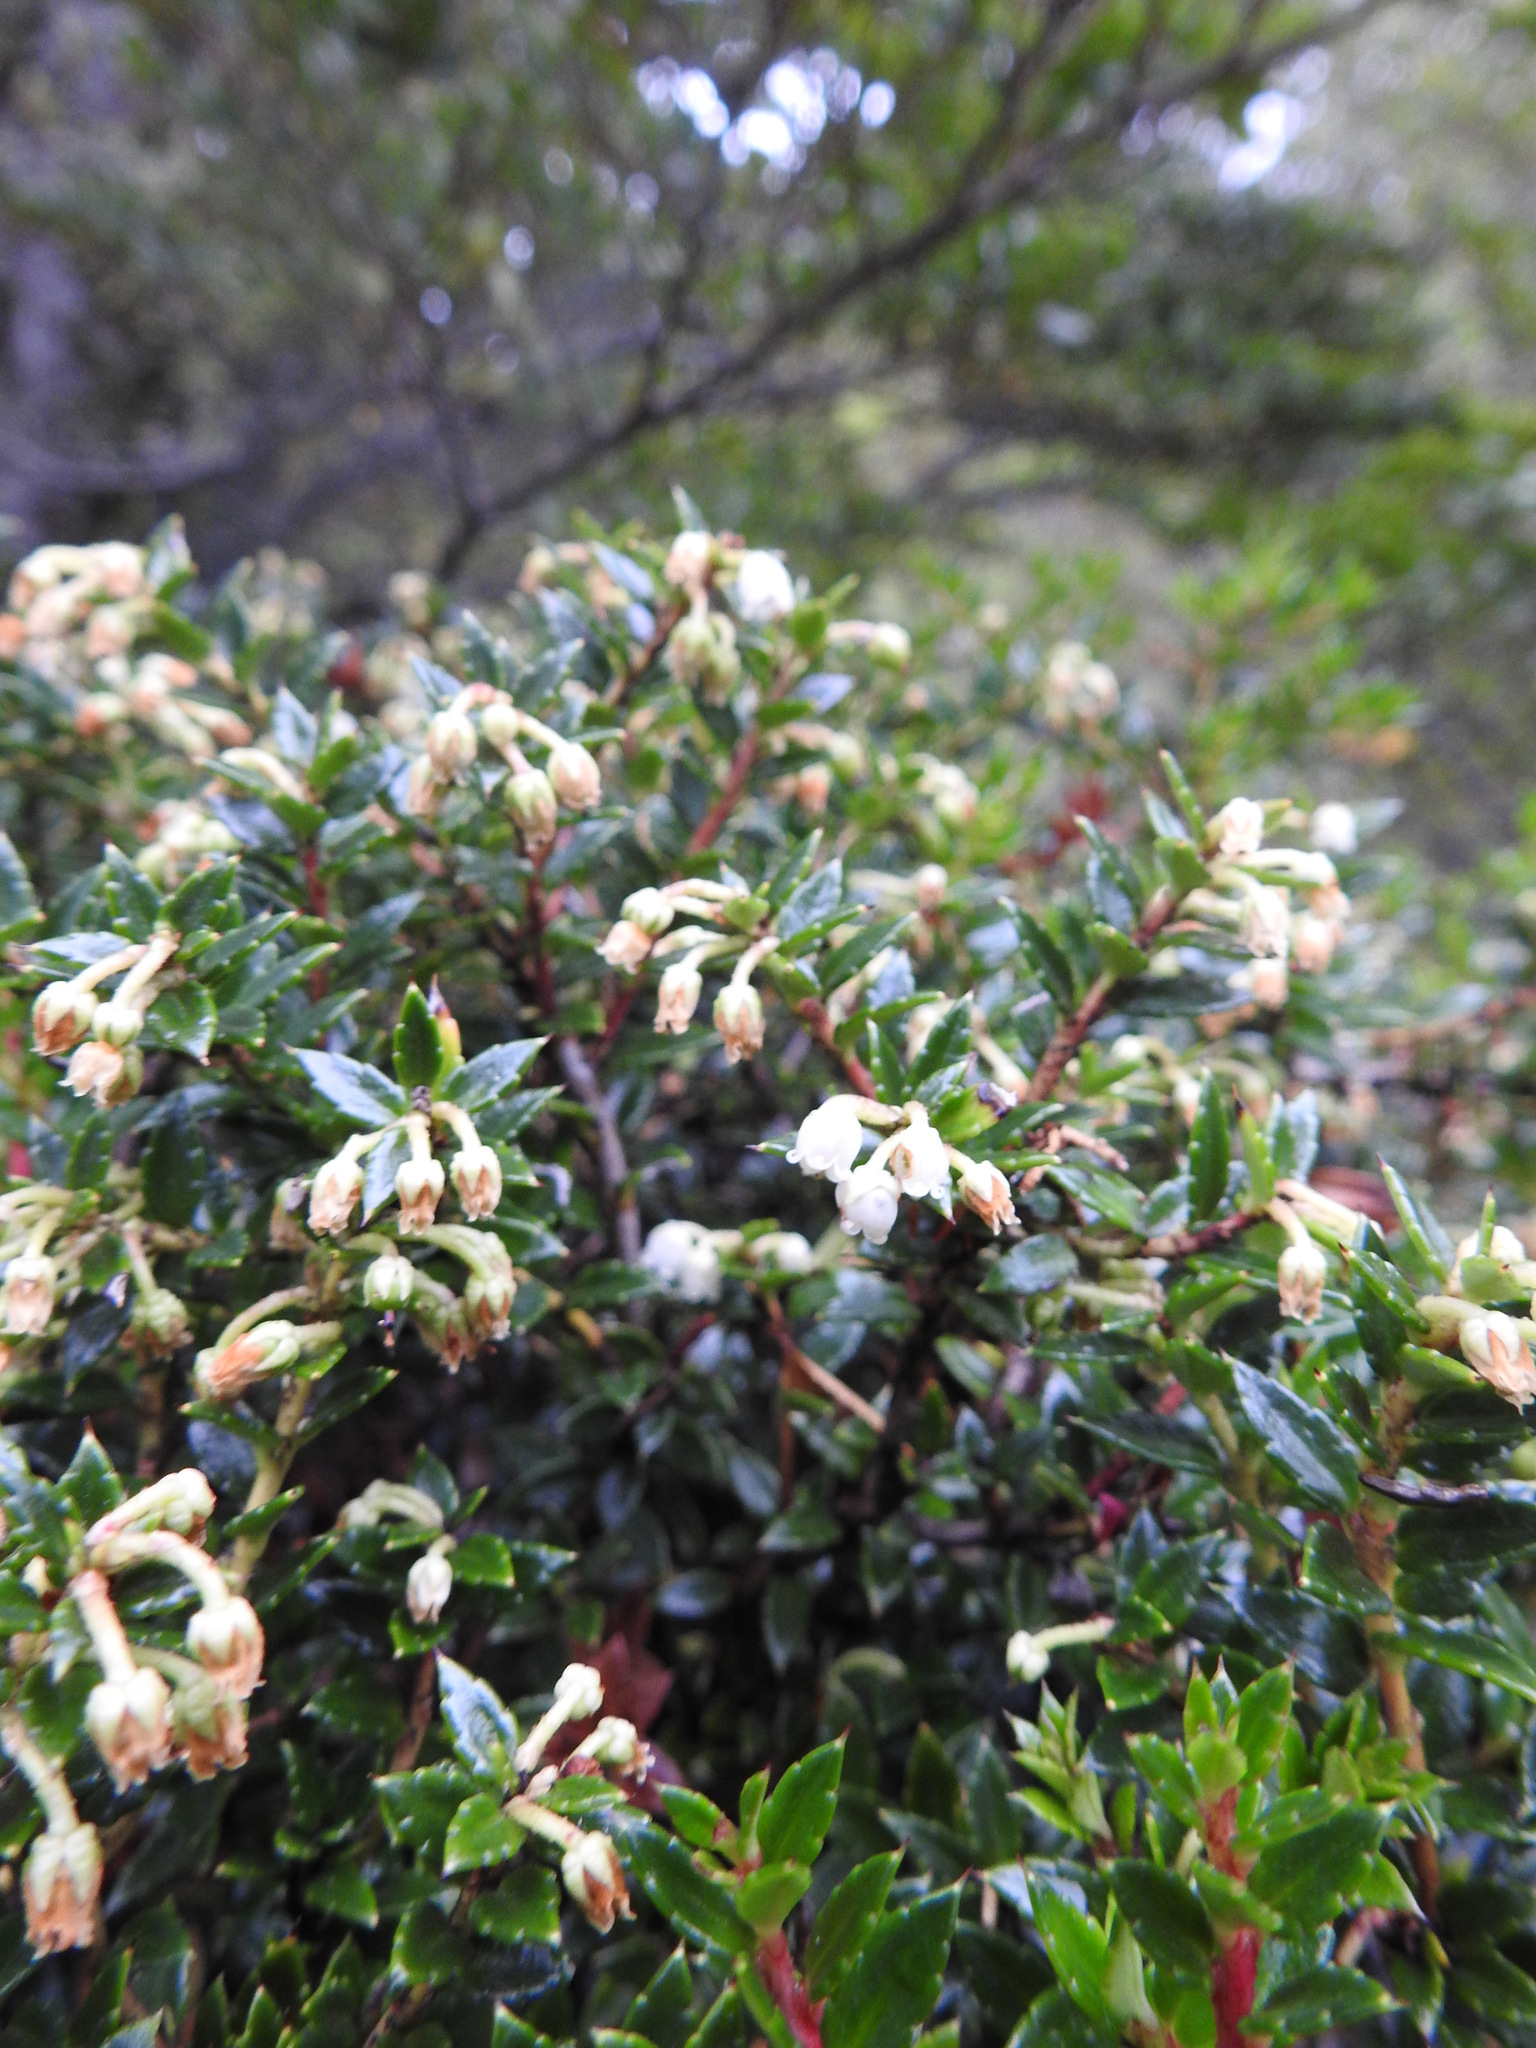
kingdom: Plantae
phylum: Tracheophyta
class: Magnoliopsida
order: Ericales
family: Ericaceae
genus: Gaultheria
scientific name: Gaultheria mucronata
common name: Prickly heath
